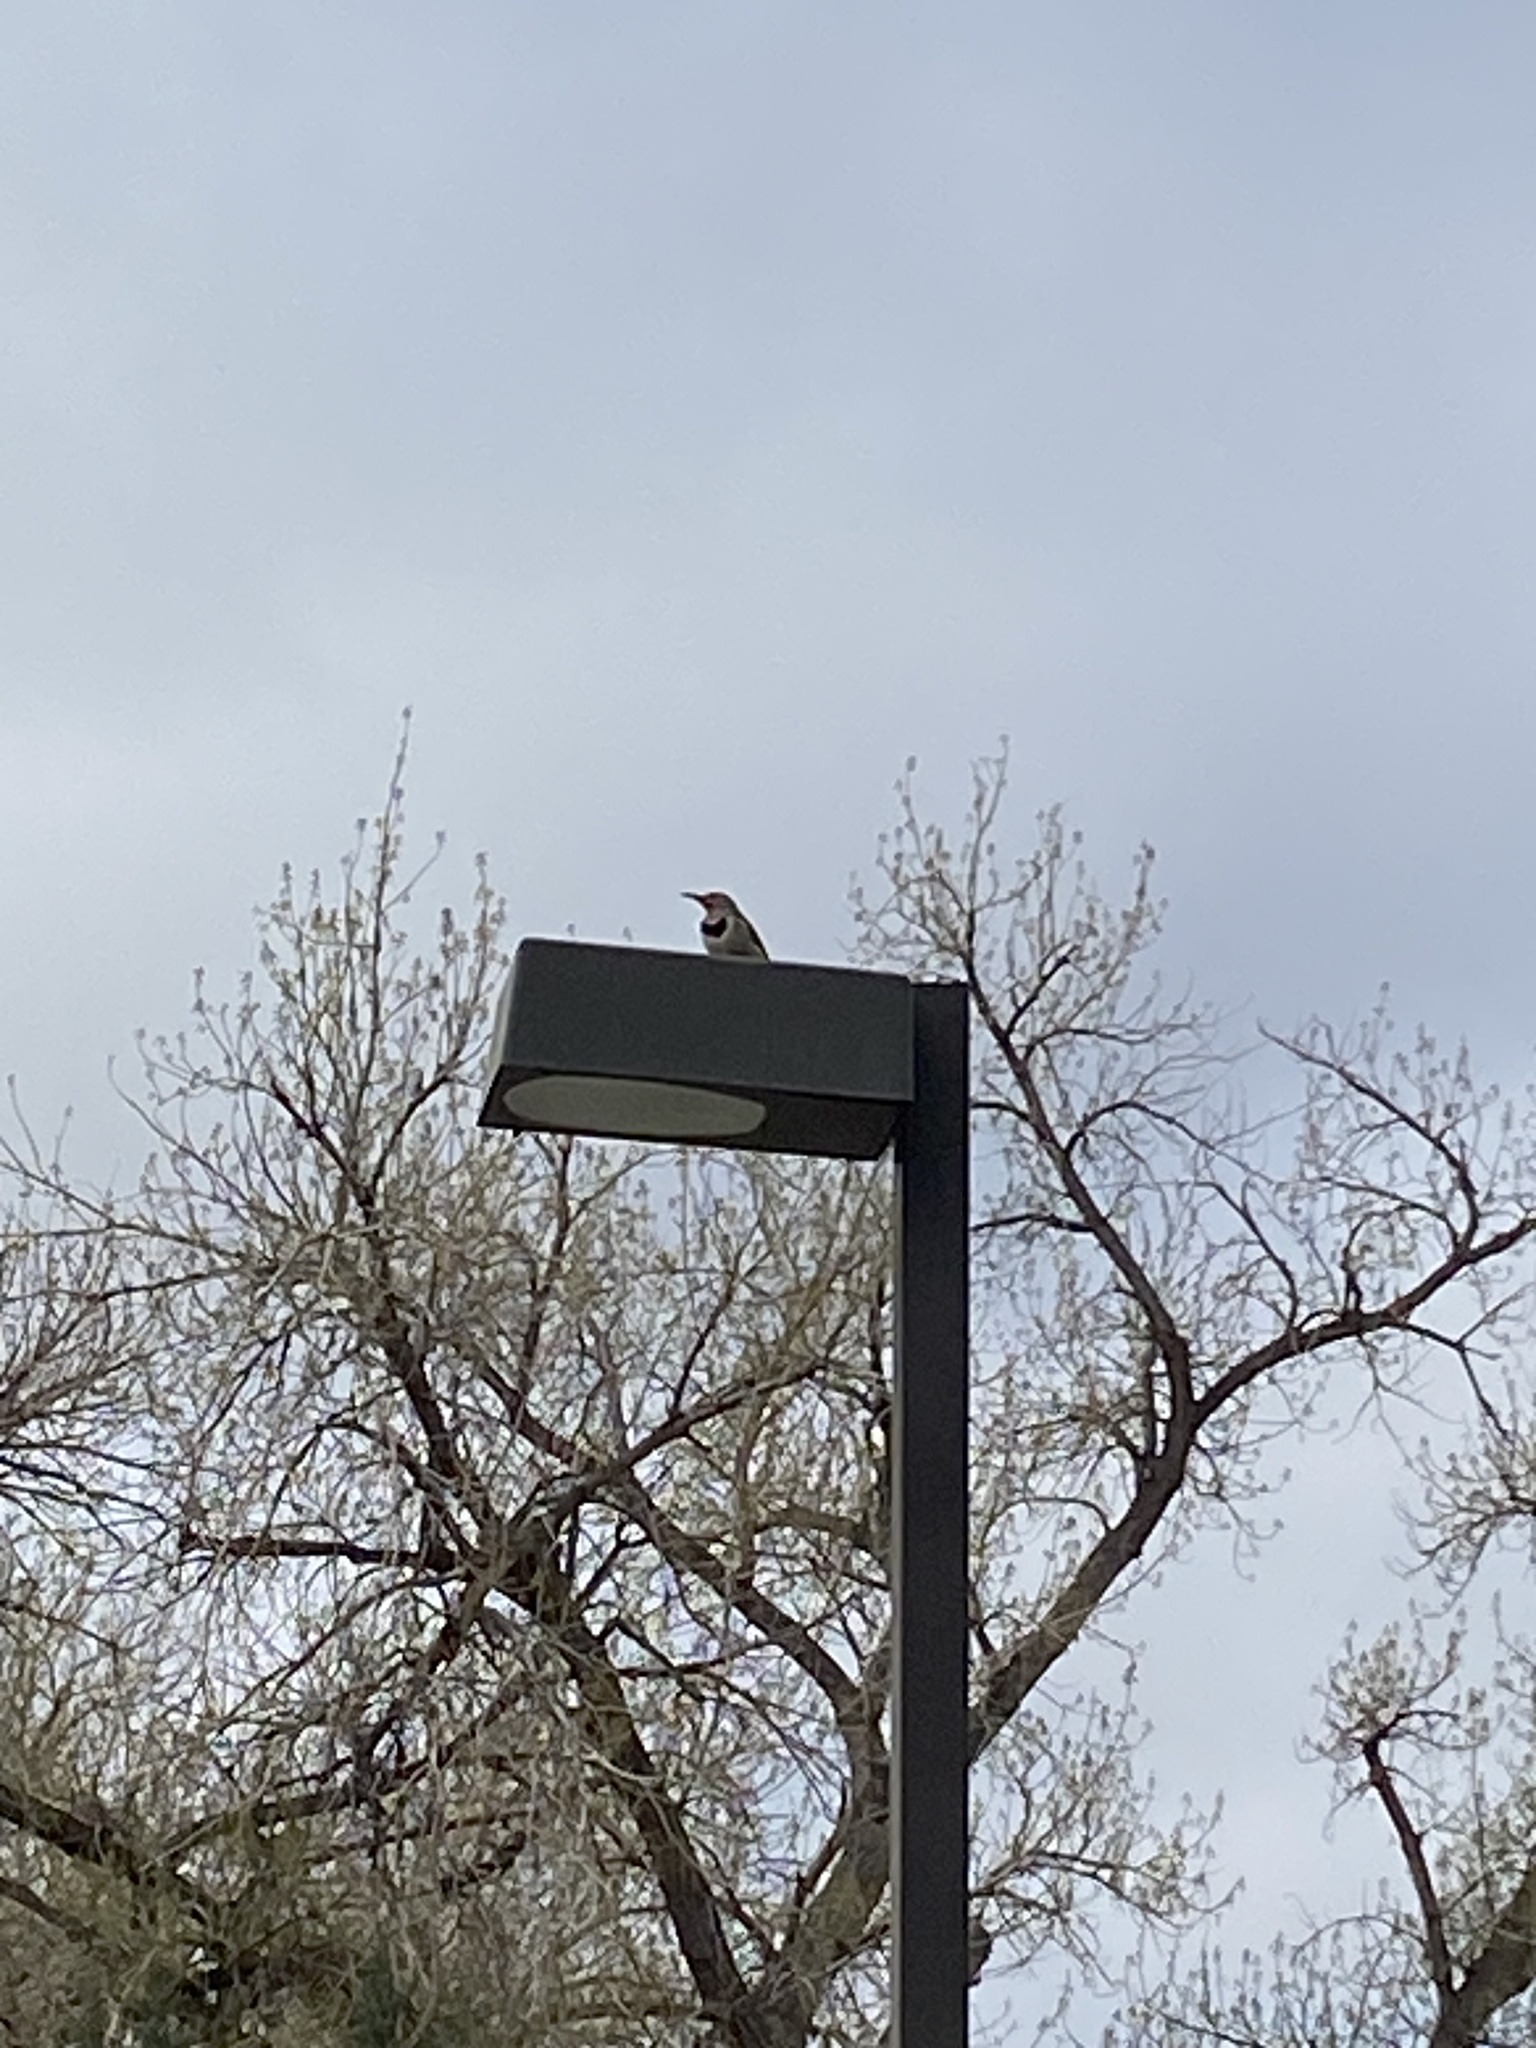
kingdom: Animalia
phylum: Chordata
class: Aves
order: Piciformes
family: Picidae
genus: Colaptes
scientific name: Colaptes auratus
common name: Northern flicker
